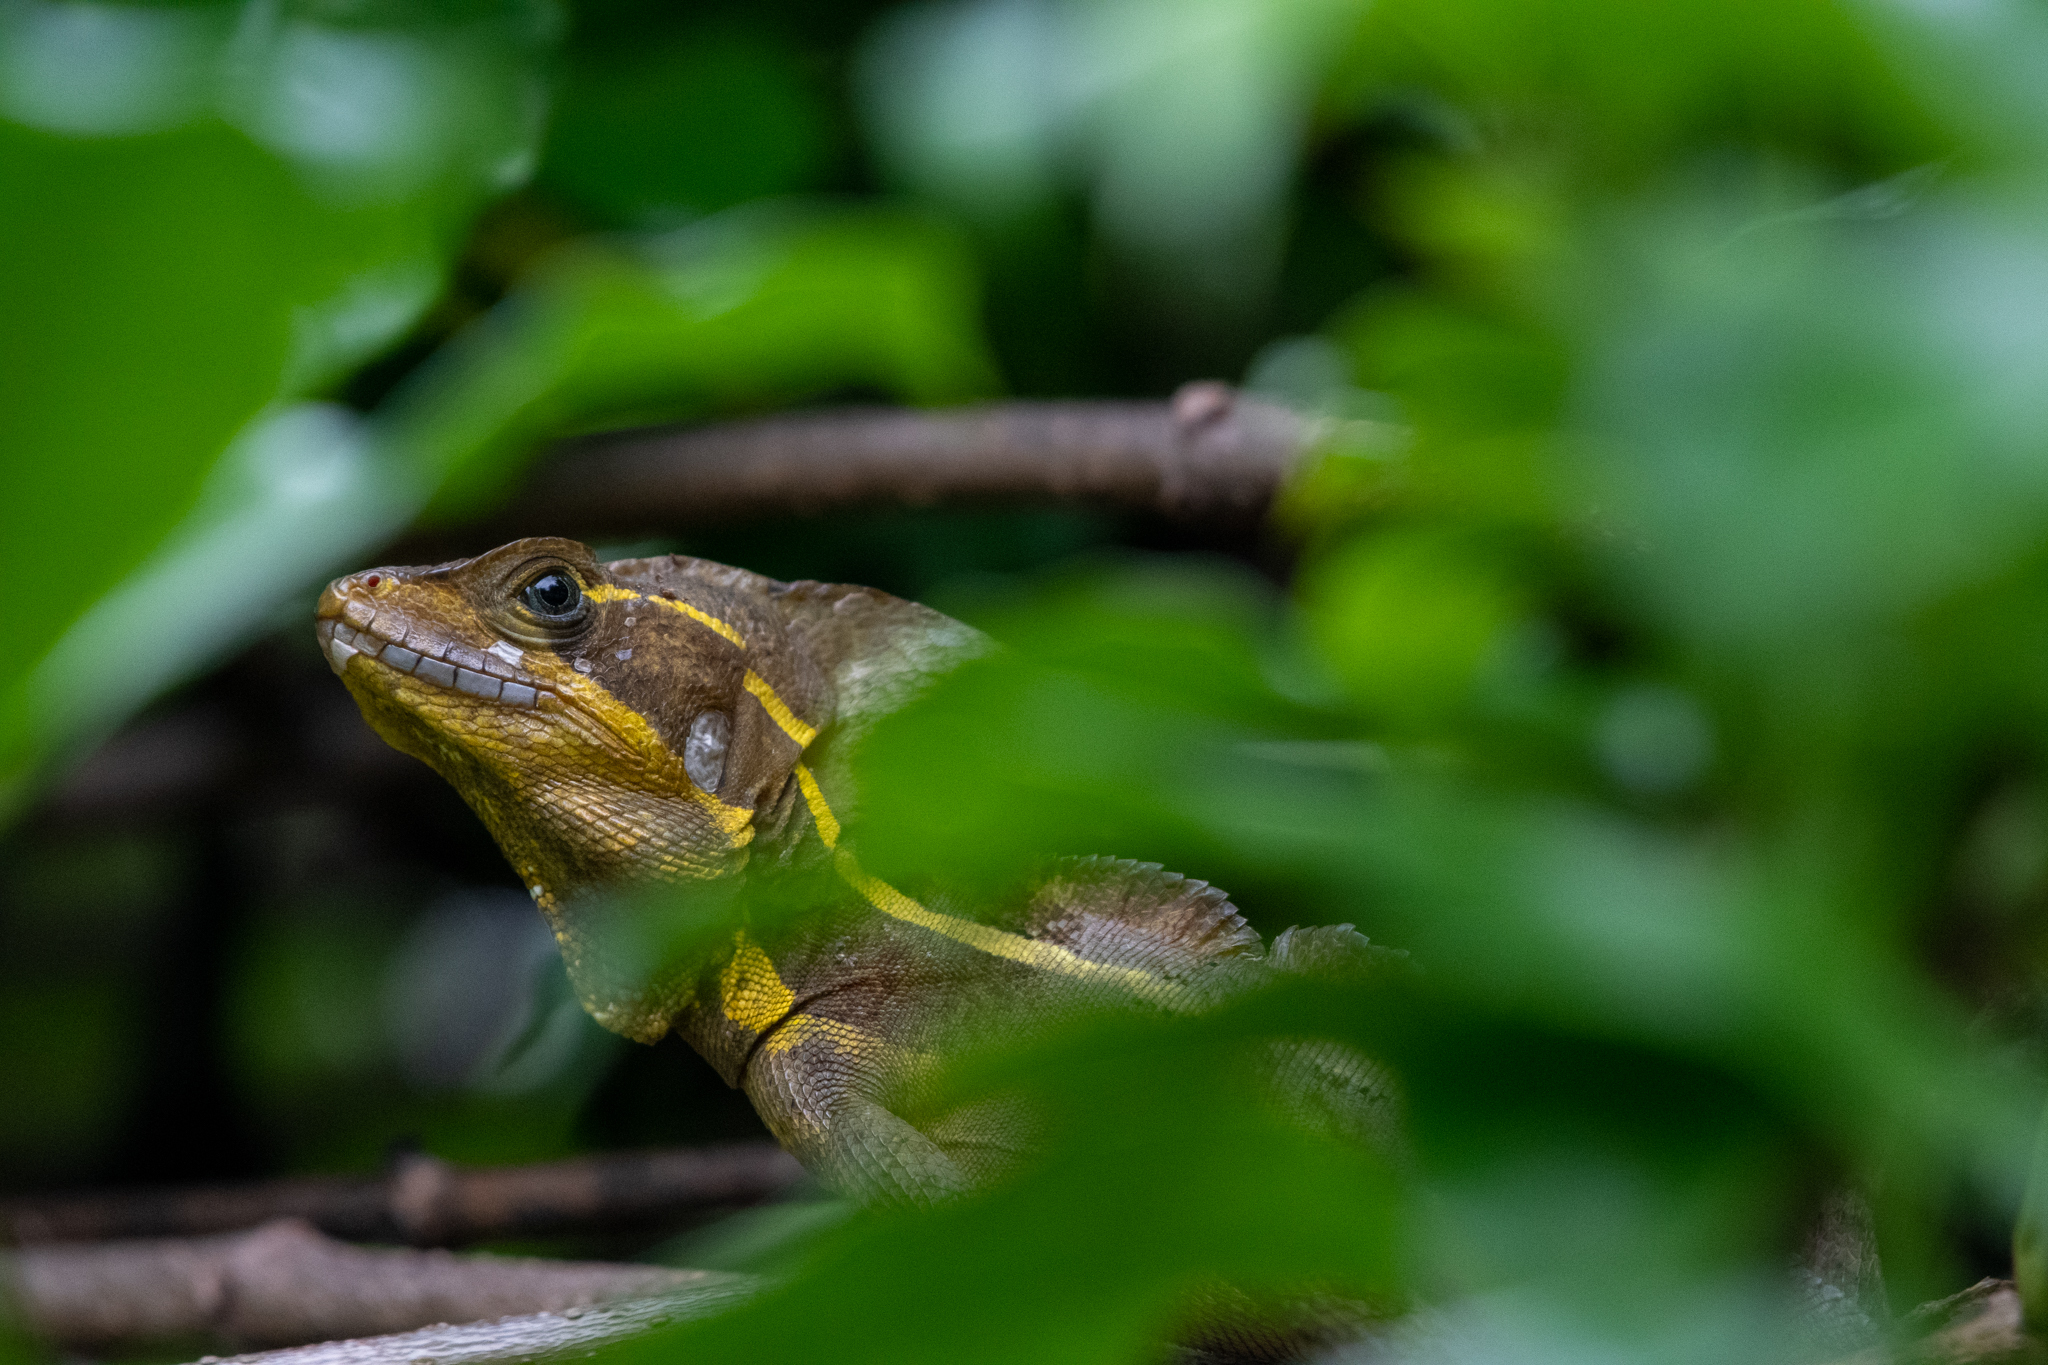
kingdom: Animalia
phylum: Chordata
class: Squamata
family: Corytophanidae
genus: Basiliscus
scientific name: Basiliscus vittatus
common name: Brown basilisk
